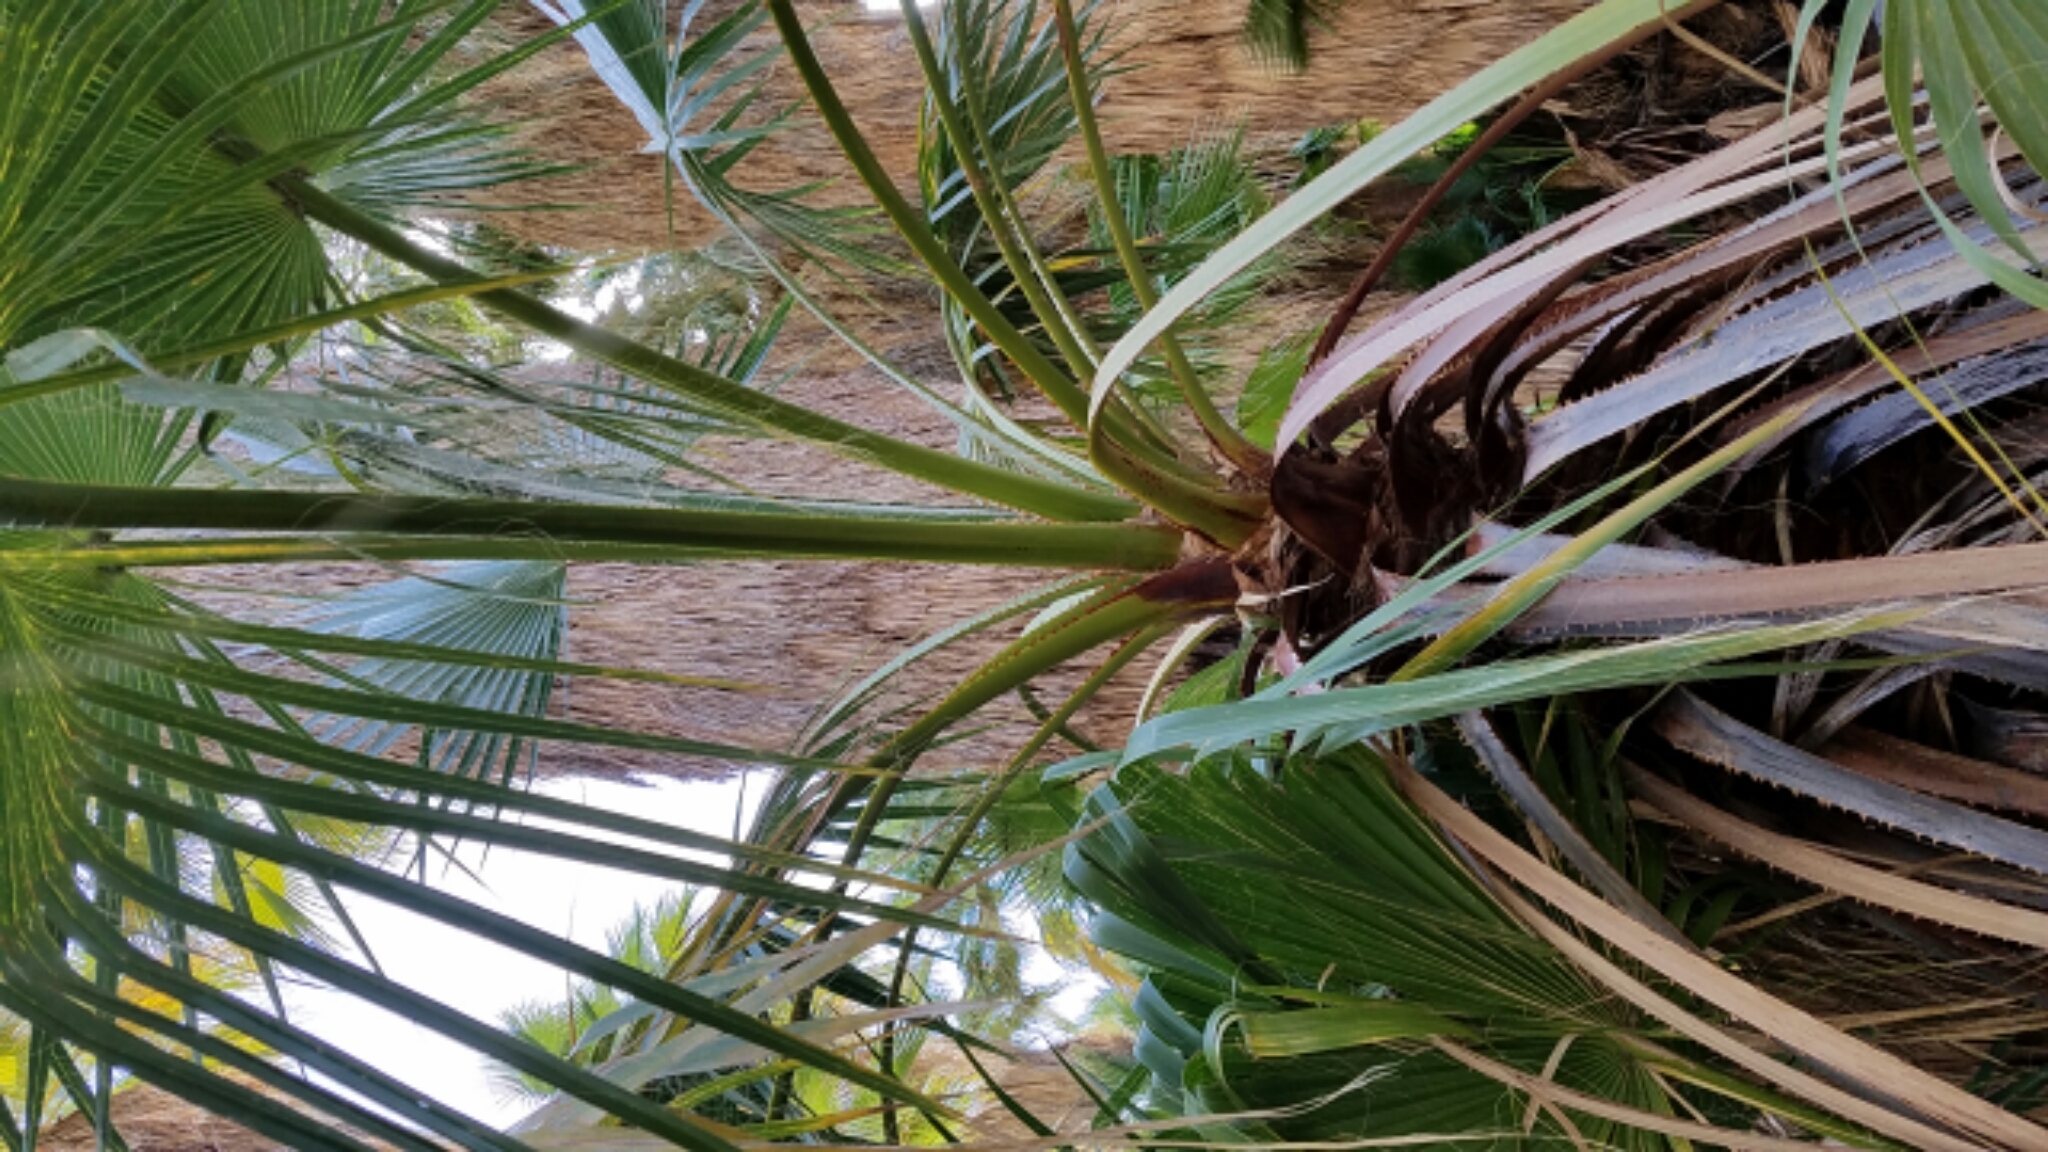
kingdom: Plantae
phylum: Tracheophyta
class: Liliopsida
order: Arecales
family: Arecaceae
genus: Washingtonia
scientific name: Washingtonia filifera
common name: California fan palm
